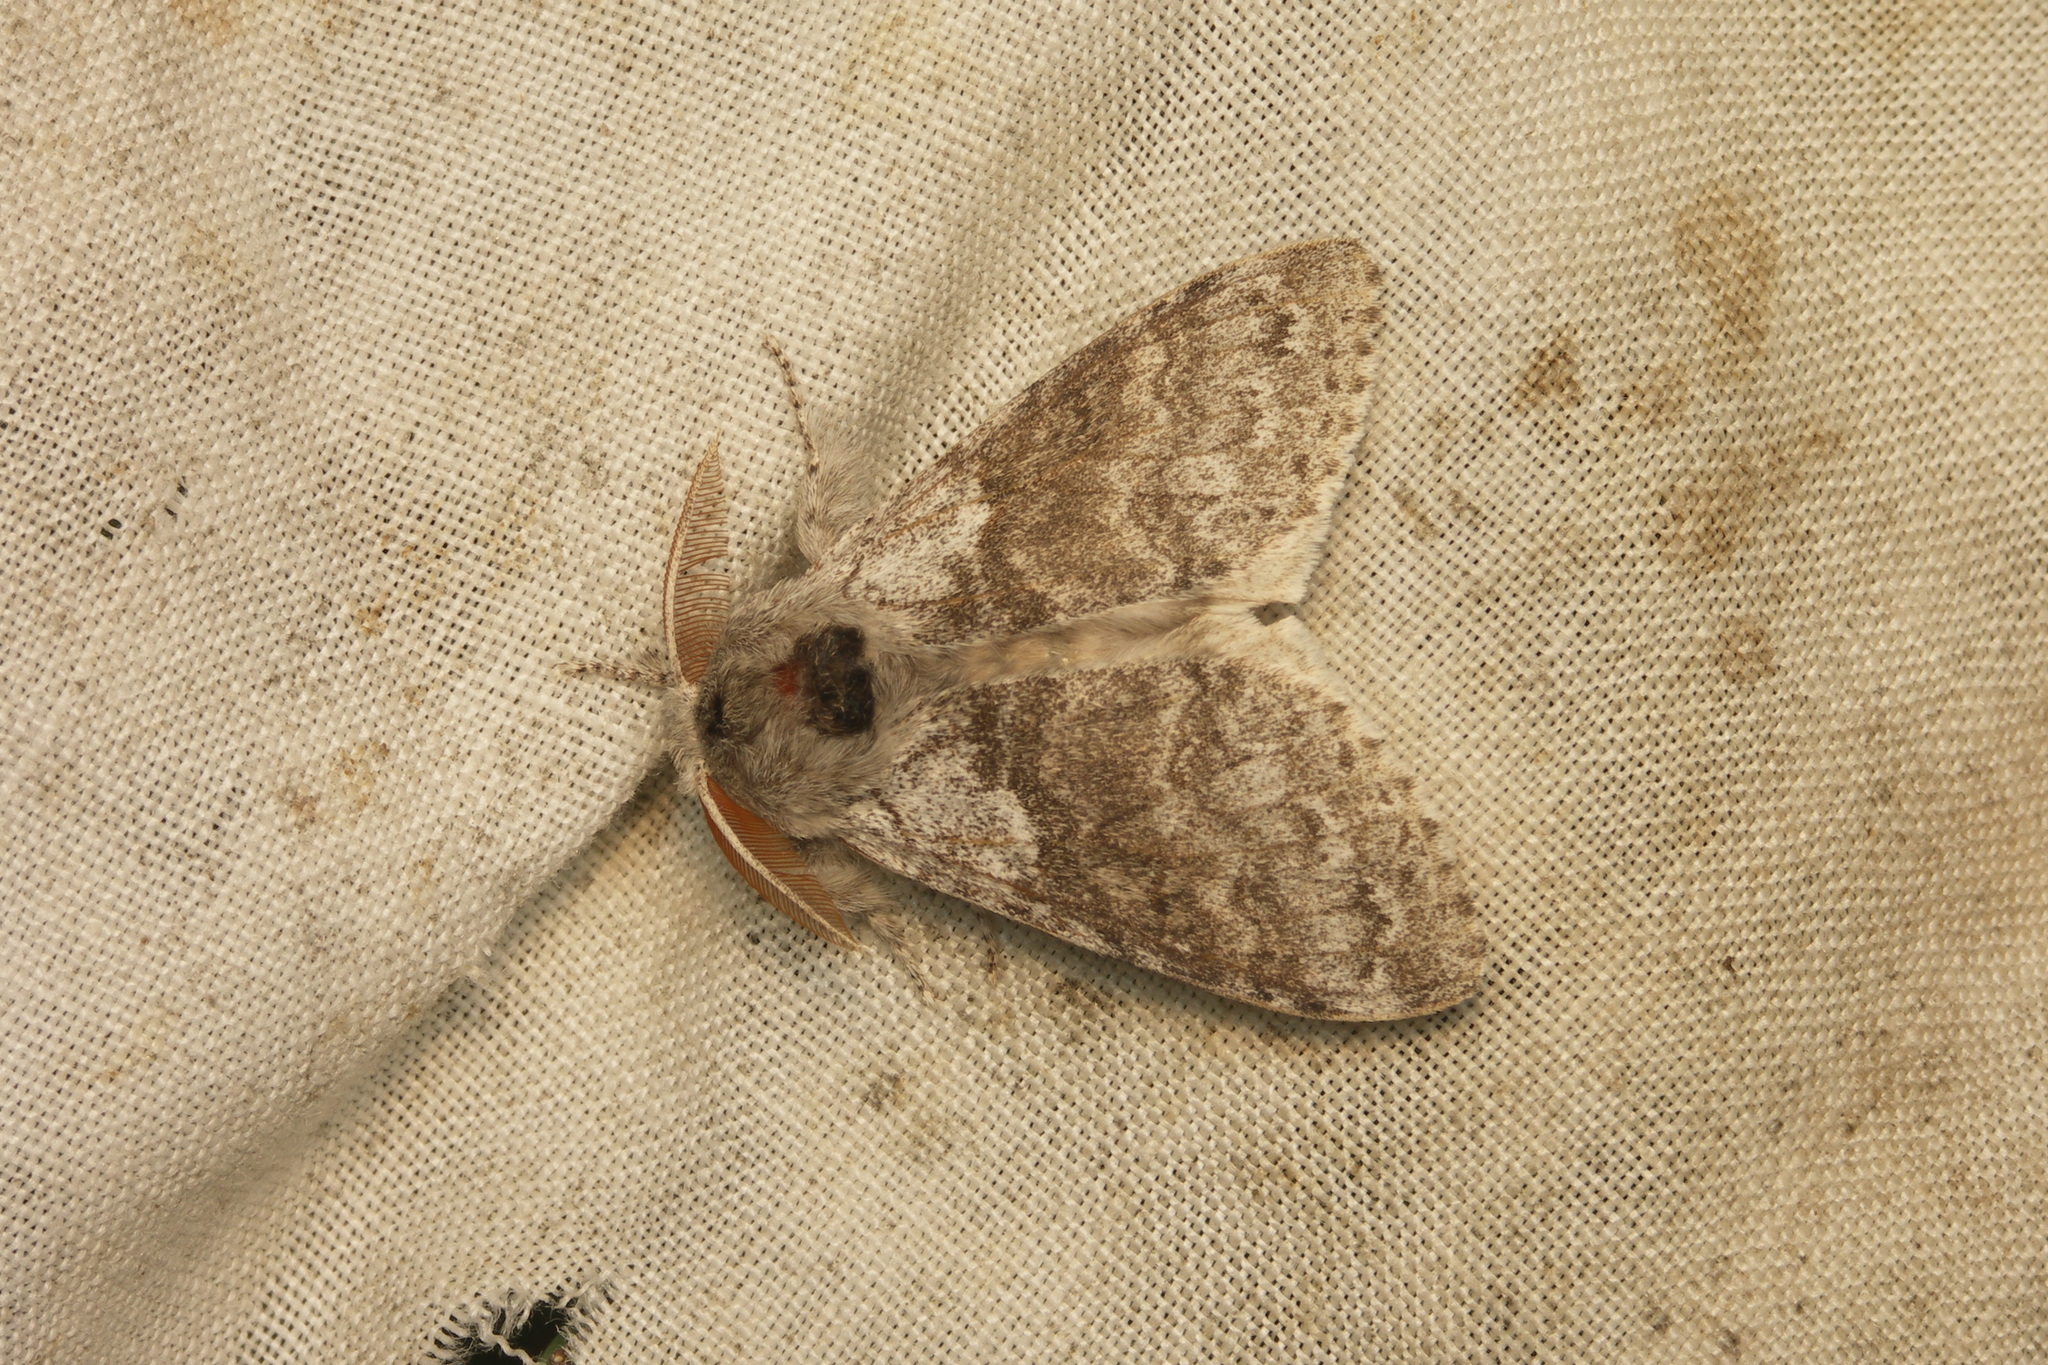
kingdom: Animalia
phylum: Arthropoda
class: Insecta
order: Lepidoptera
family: Erebidae
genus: Calliteara
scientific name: Calliteara pudibunda
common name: Pale tussock
